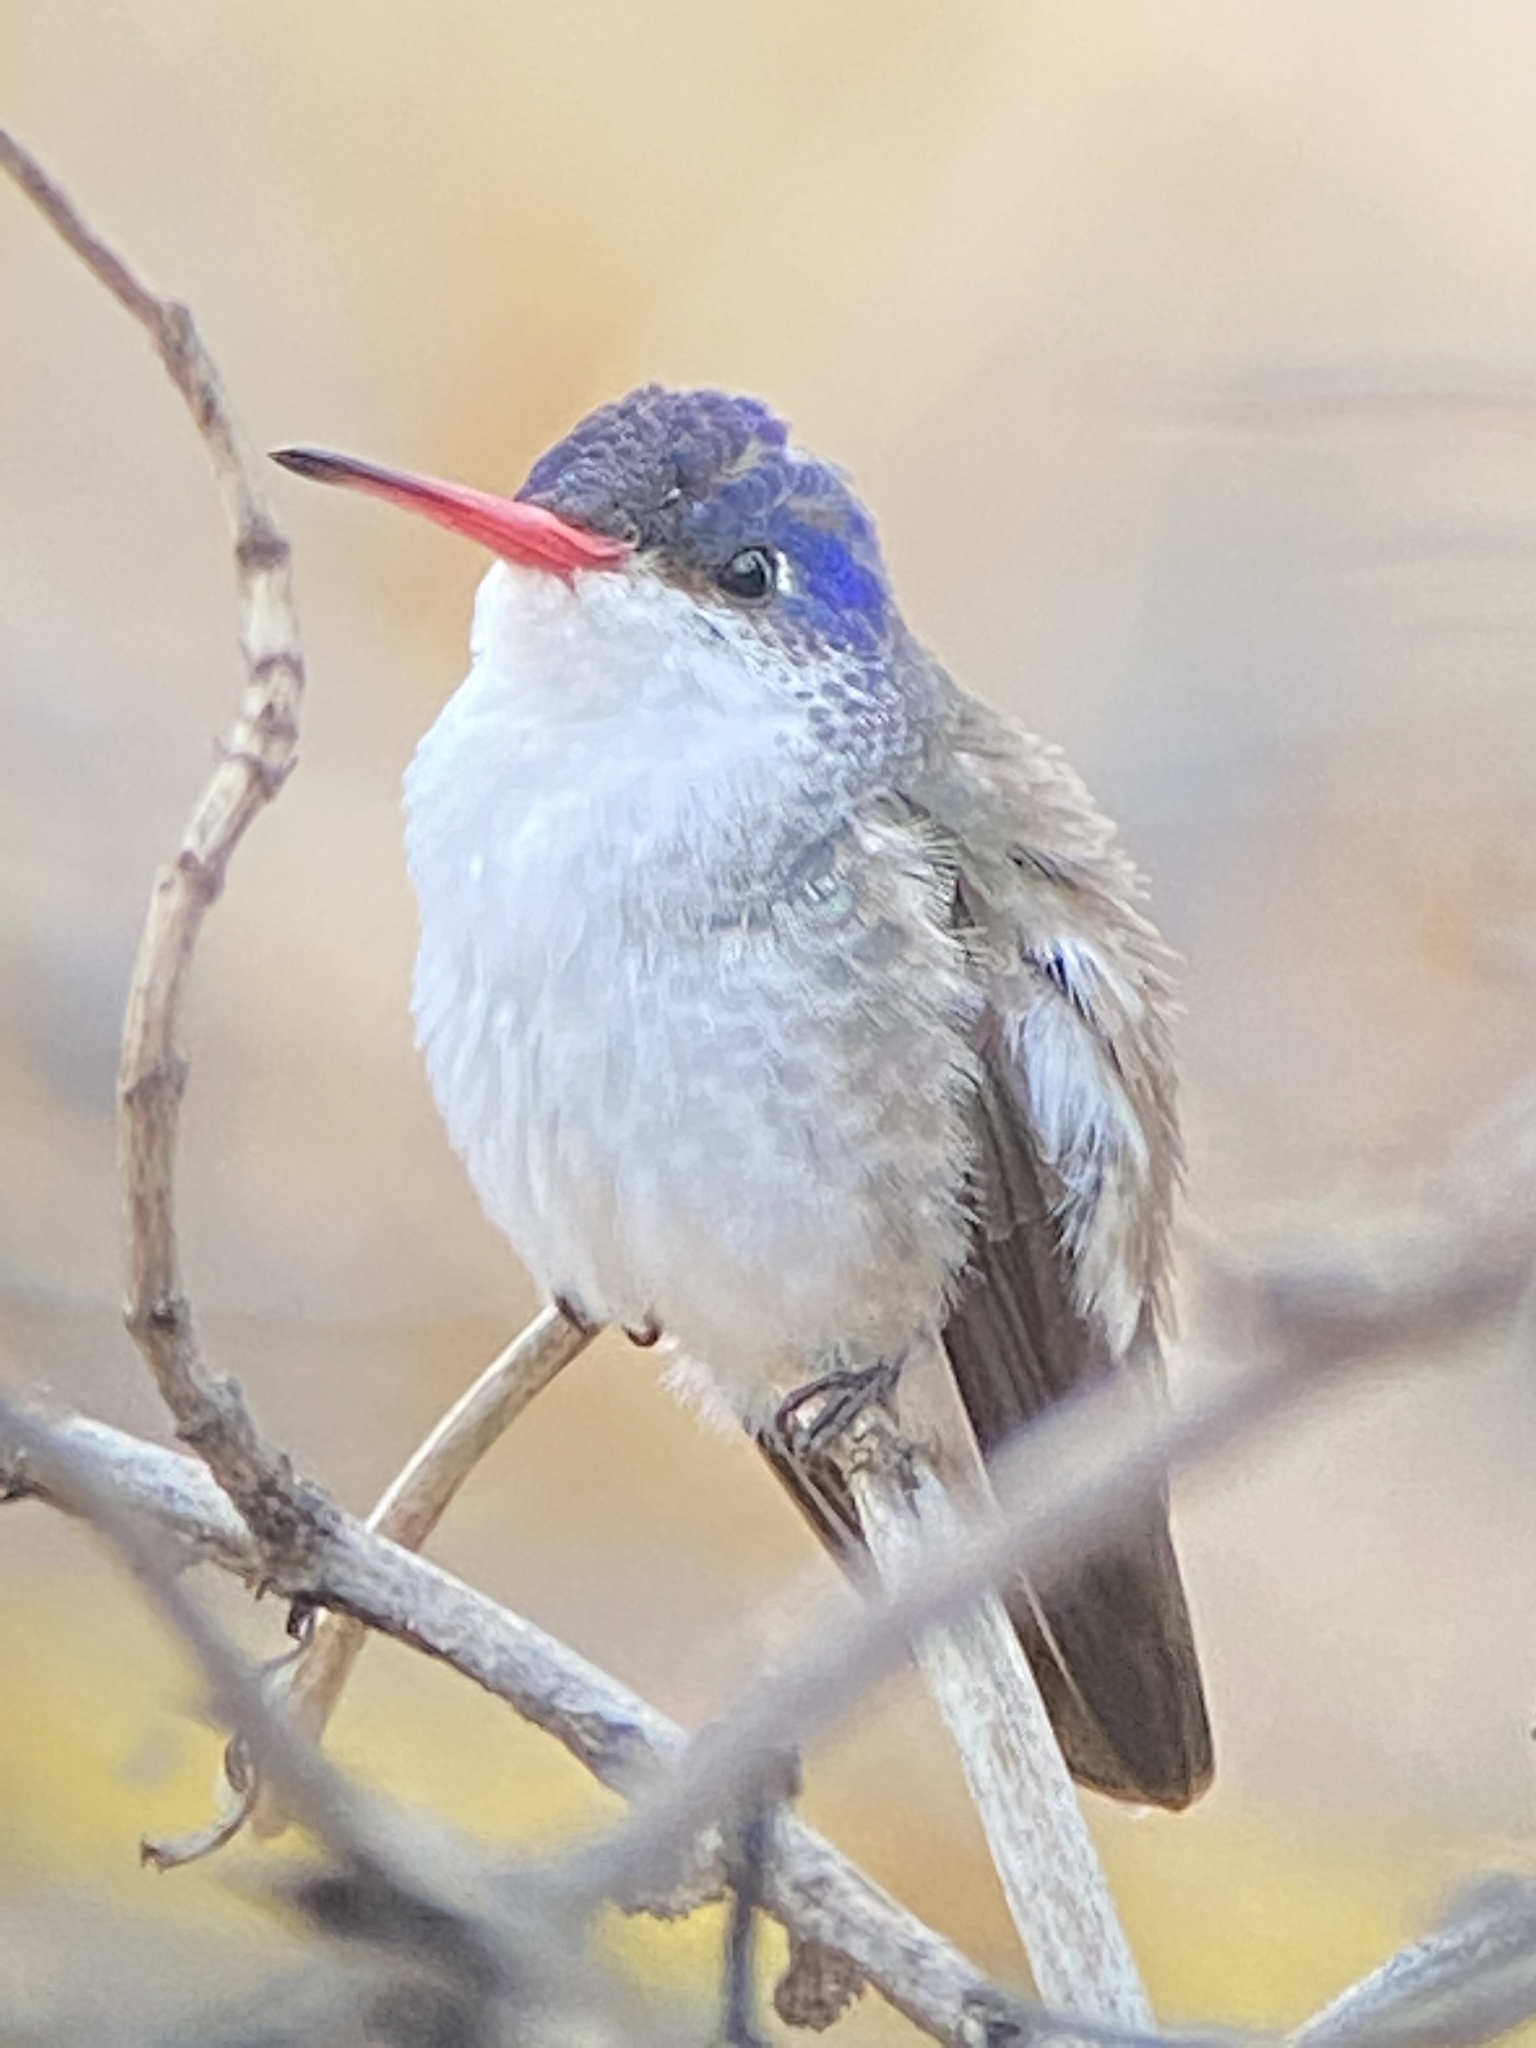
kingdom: Animalia
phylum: Chordata
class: Aves
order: Apodiformes
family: Trochilidae
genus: Leucolia
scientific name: Leucolia violiceps
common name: Violet-crowned hummingbird
